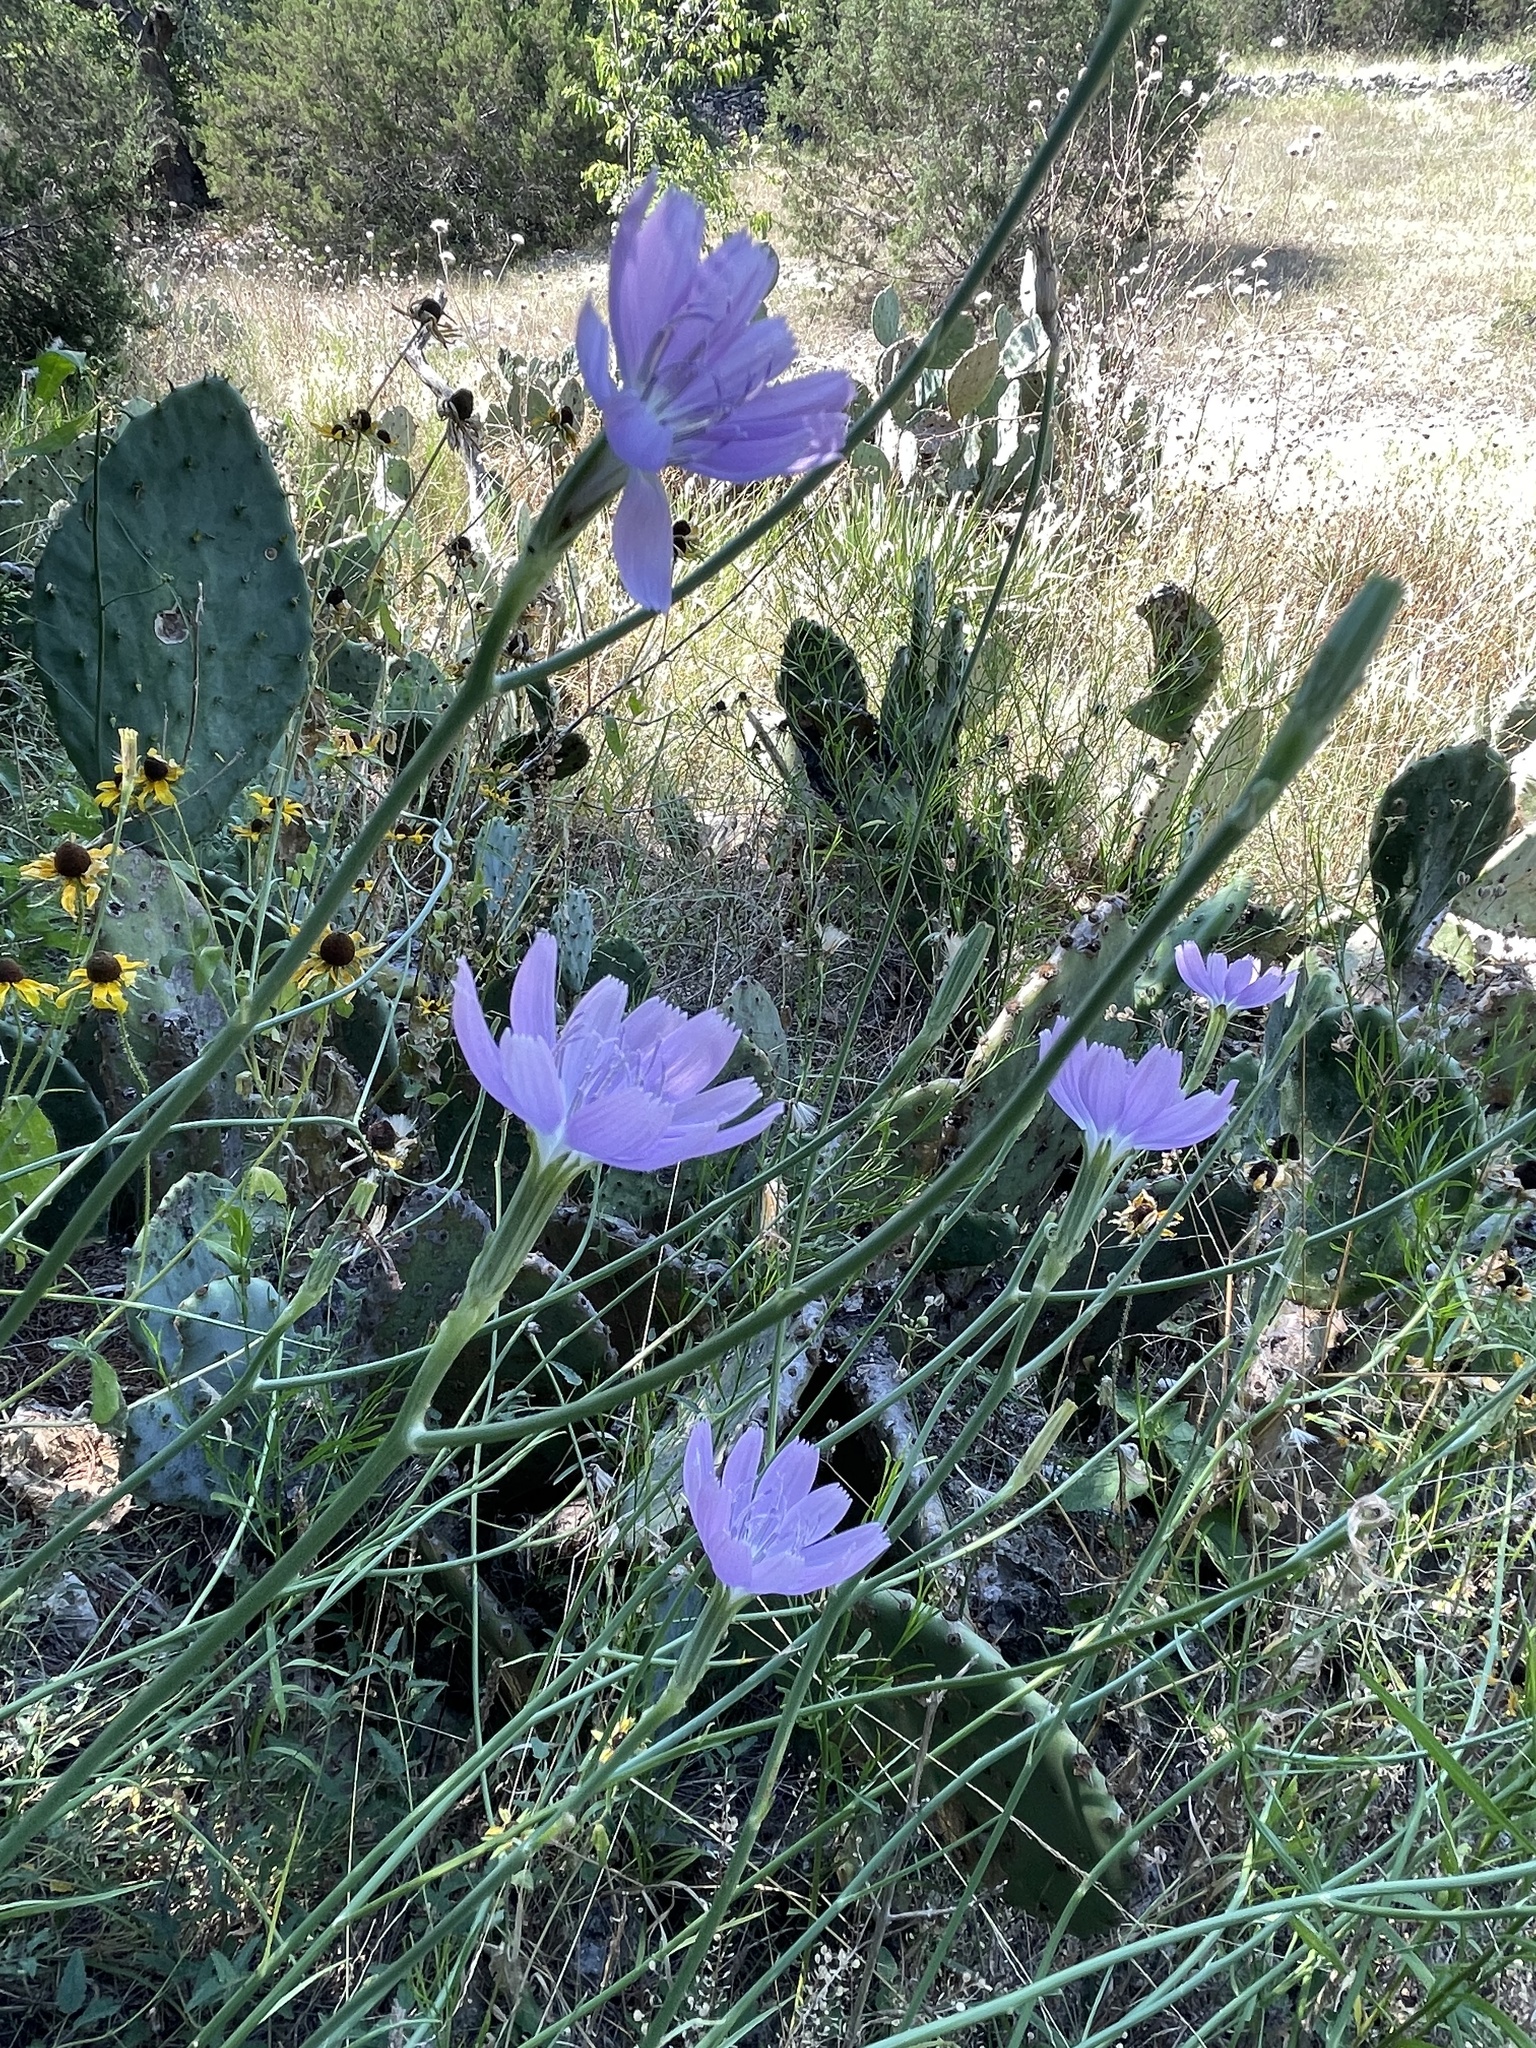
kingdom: Plantae
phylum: Tracheophyta
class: Magnoliopsida
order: Asterales
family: Asteraceae
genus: Lygodesmia
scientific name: Lygodesmia texana
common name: Texas skeleton-plant
